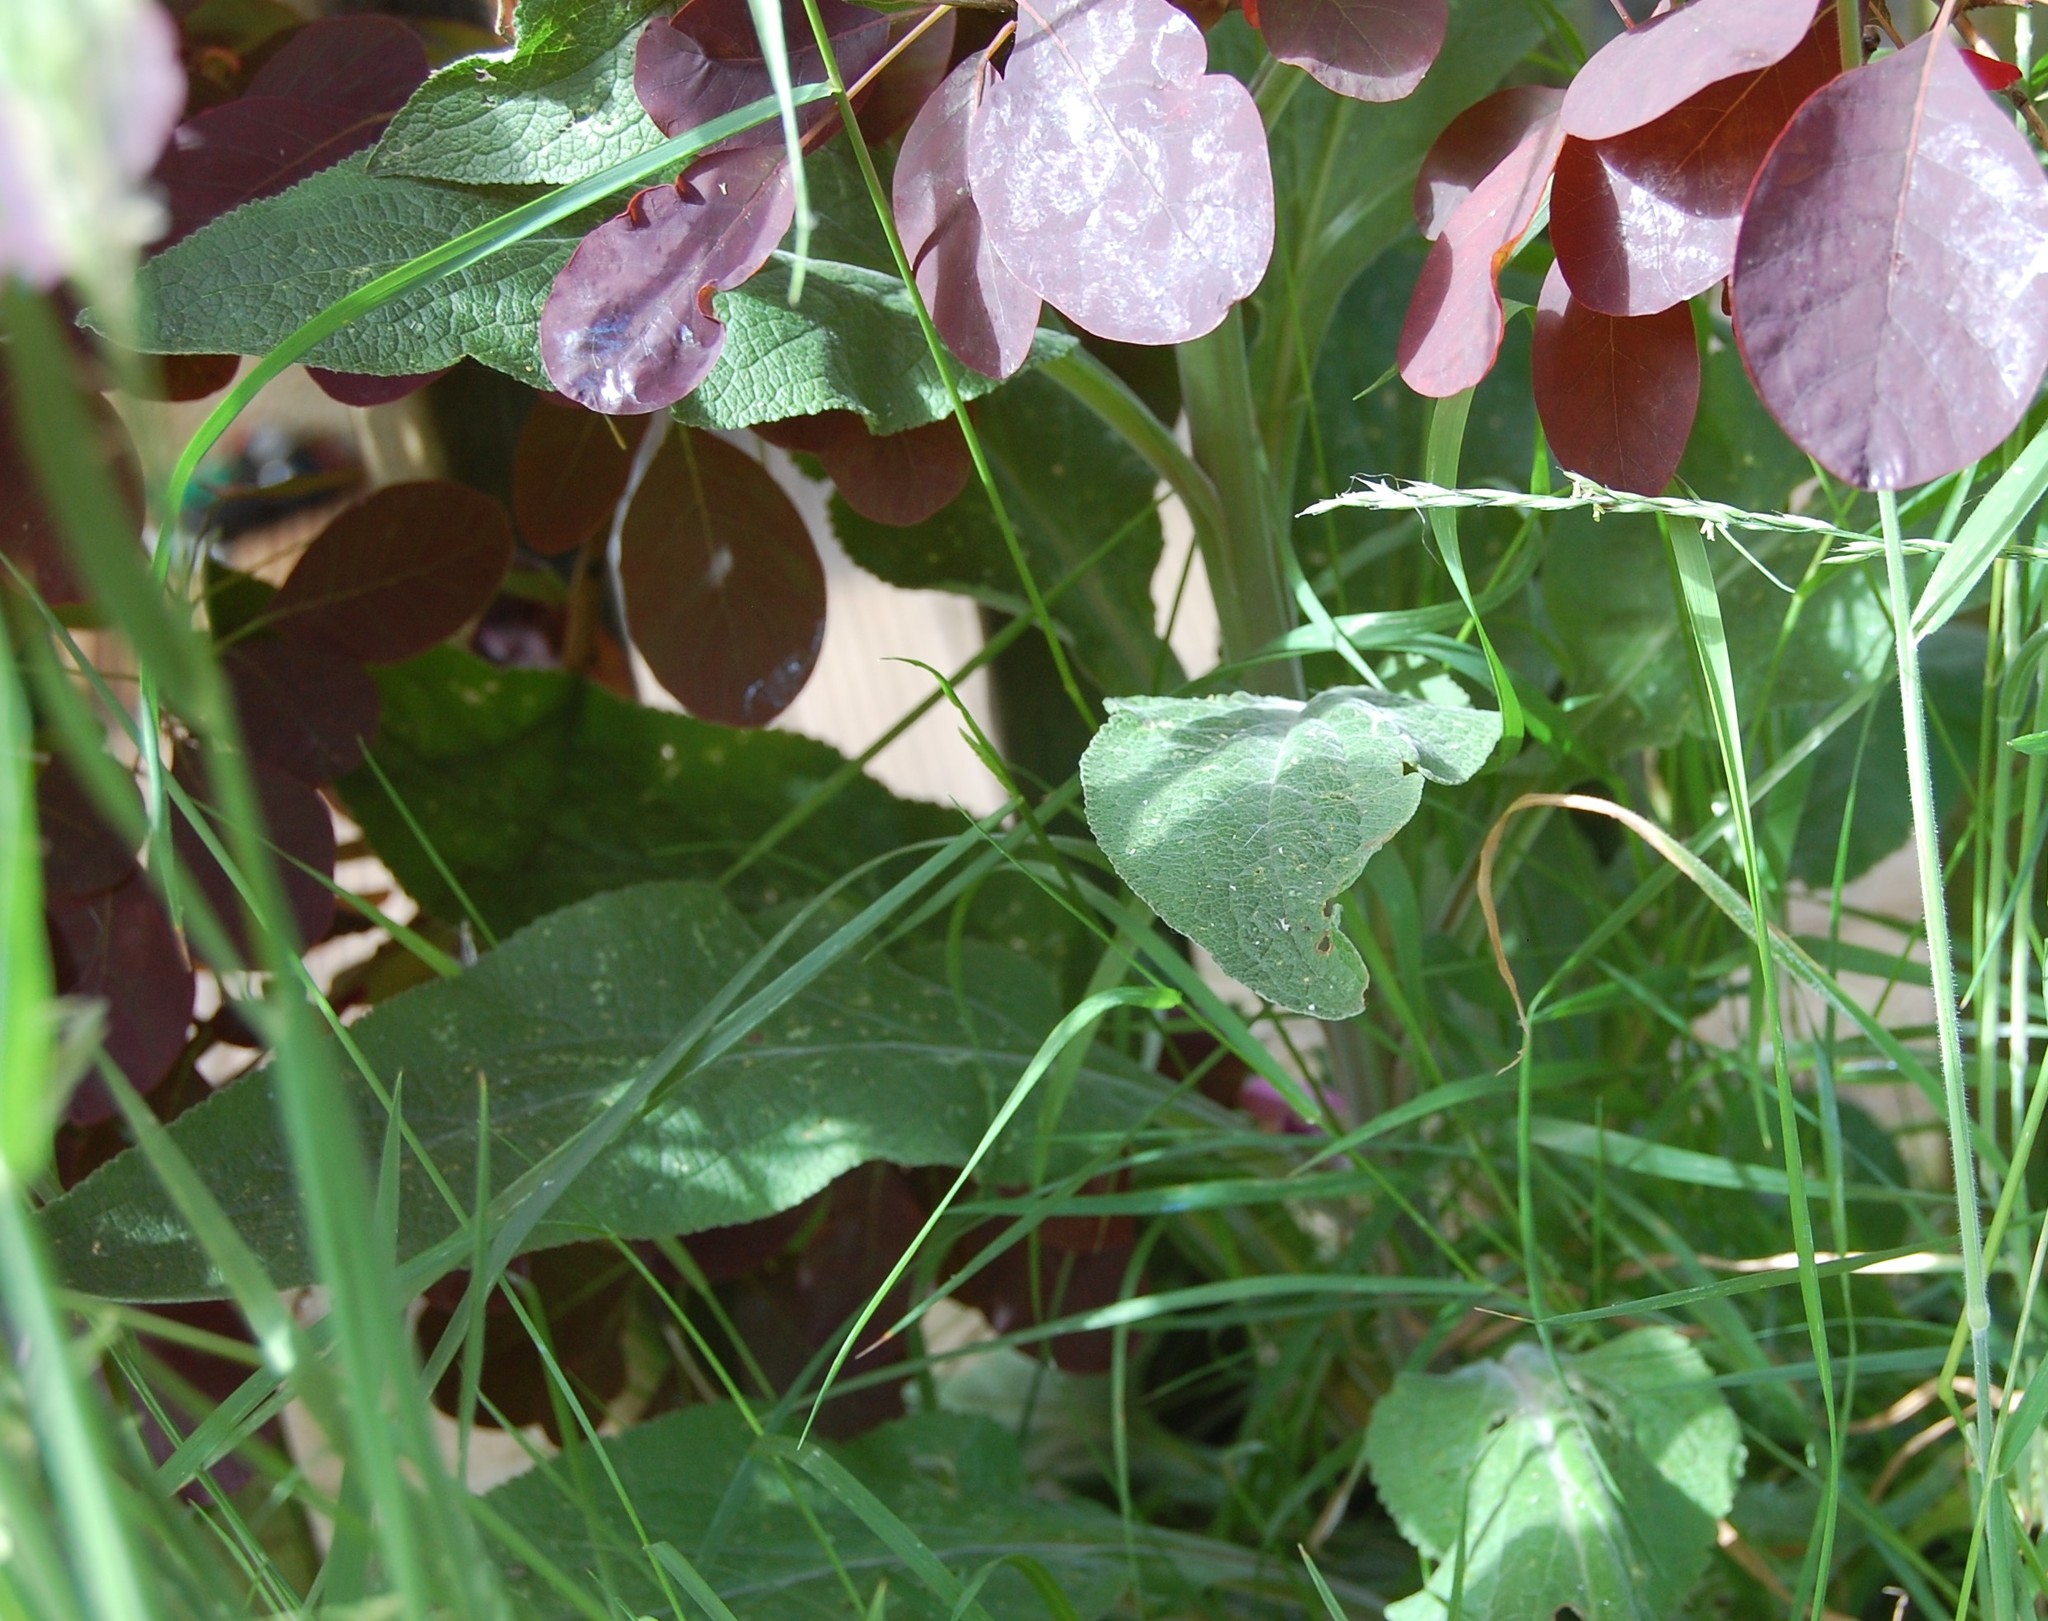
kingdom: Plantae
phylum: Tracheophyta
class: Magnoliopsida
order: Lamiales
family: Plantaginaceae
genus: Digitalis
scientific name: Digitalis purpurea
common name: Foxglove
